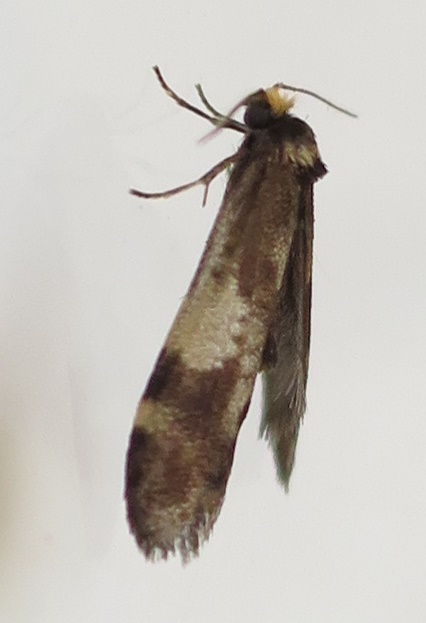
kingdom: Animalia
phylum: Arthropoda
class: Insecta
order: Lepidoptera
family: Psychidae
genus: Lepidoscia
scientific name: Lepidoscia lainodes
